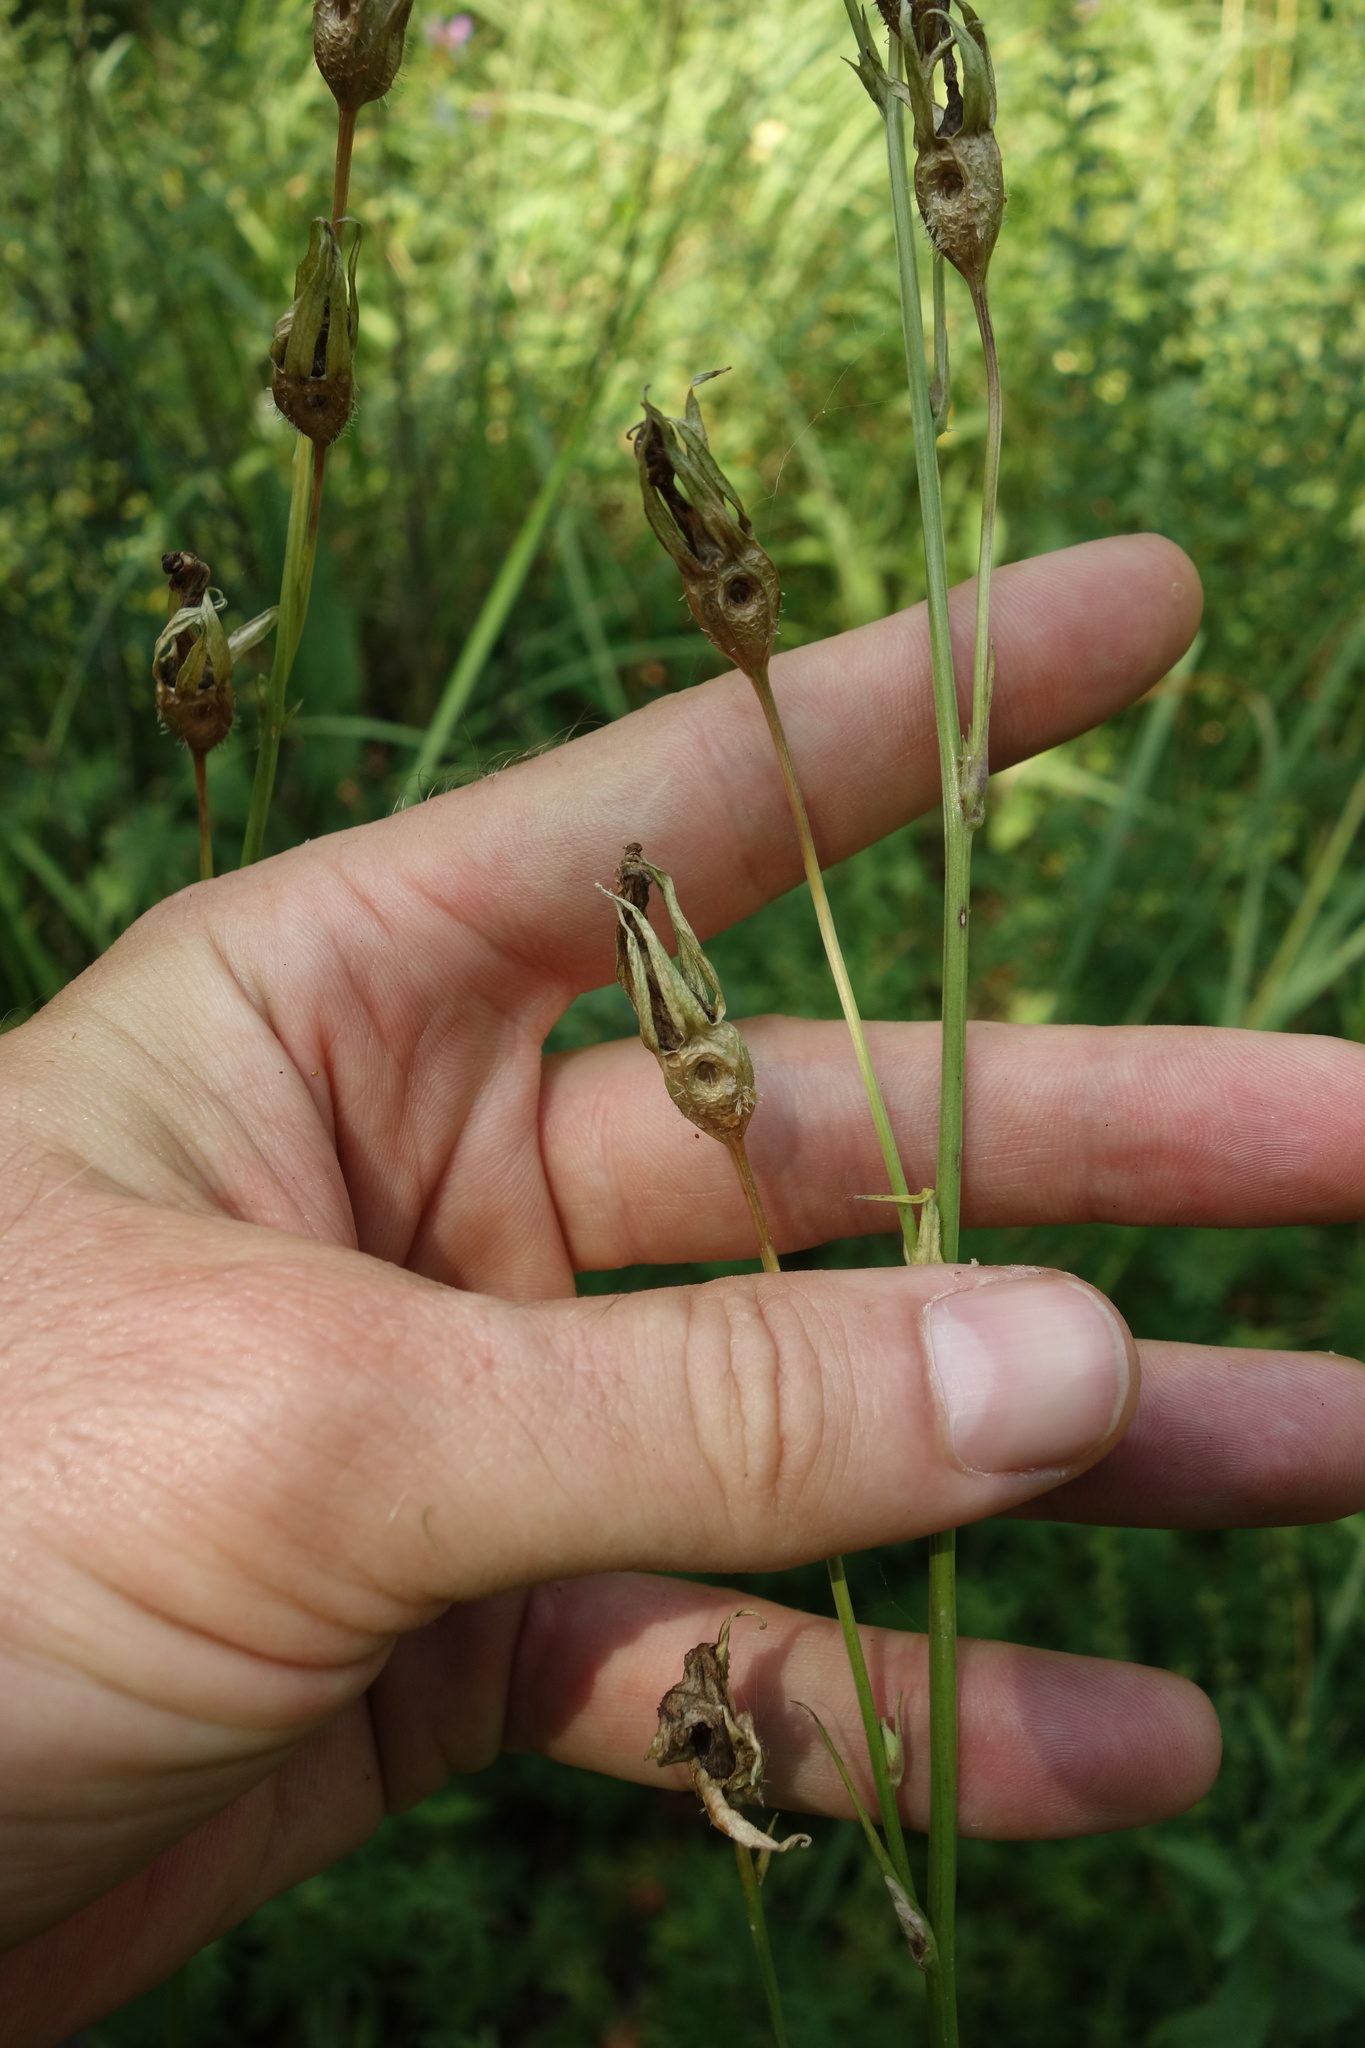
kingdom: Plantae
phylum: Tracheophyta
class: Magnoliopsida
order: Asterales
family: Campanulaceae
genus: Campanula
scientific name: Campanula persicifolia
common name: Peach-leaved bellflower
